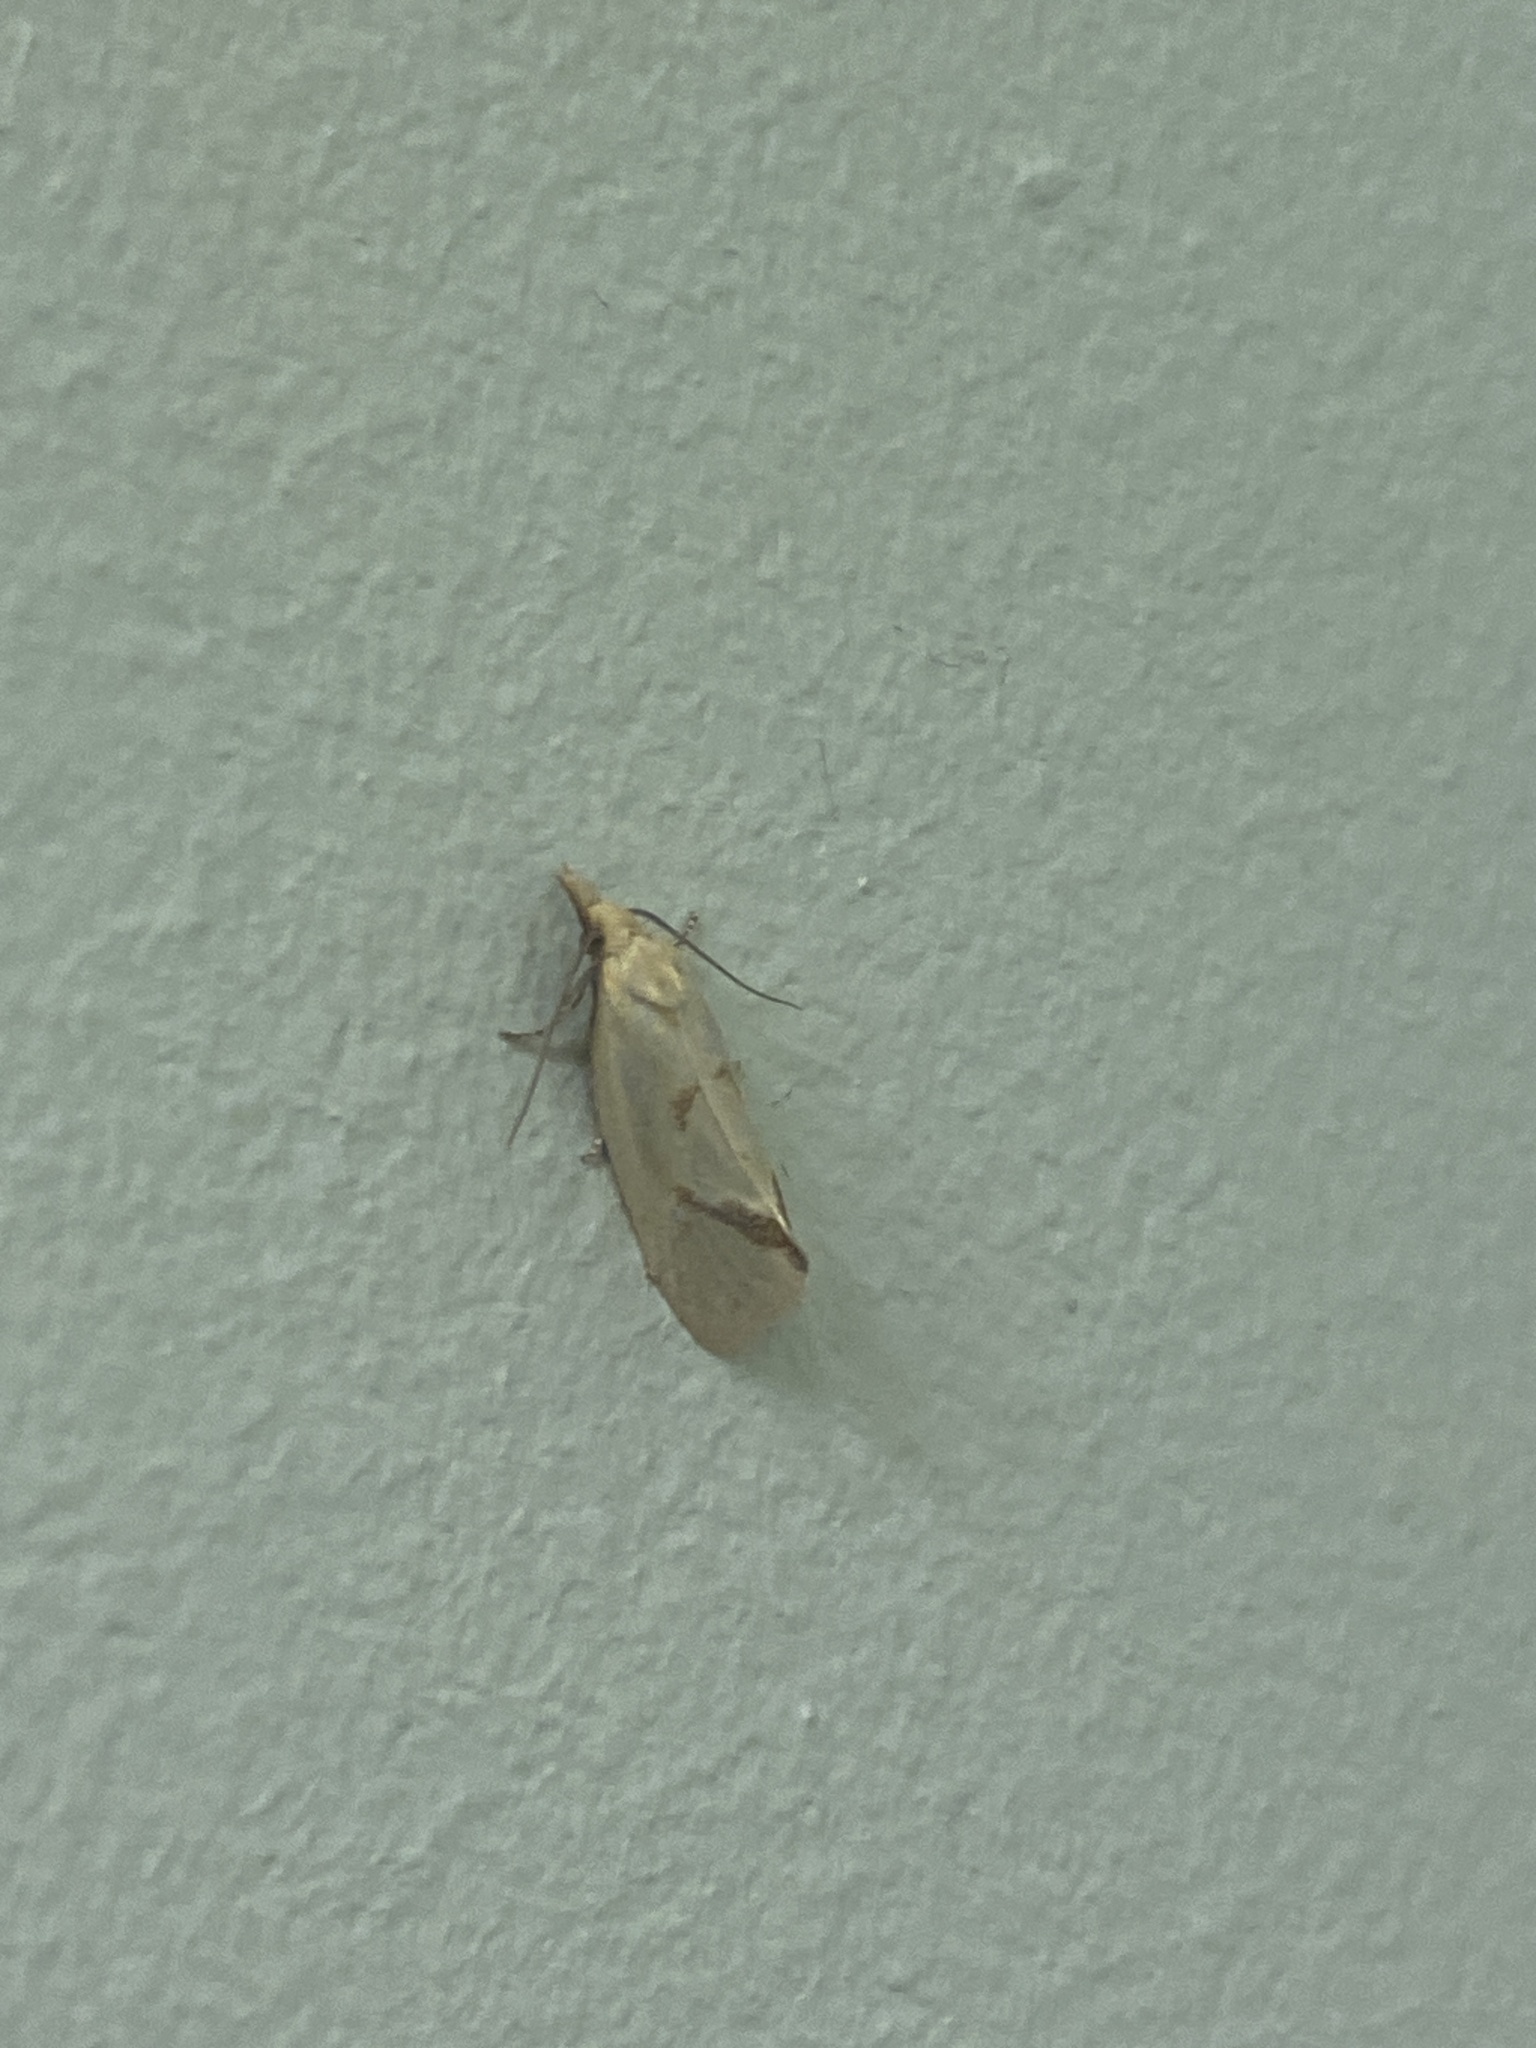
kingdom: Animalia
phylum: Arthropoda
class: Insecta
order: Lepidoptera
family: Tortricidae
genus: Agapeta
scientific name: Agapeta hamana
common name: Common yellow conch
